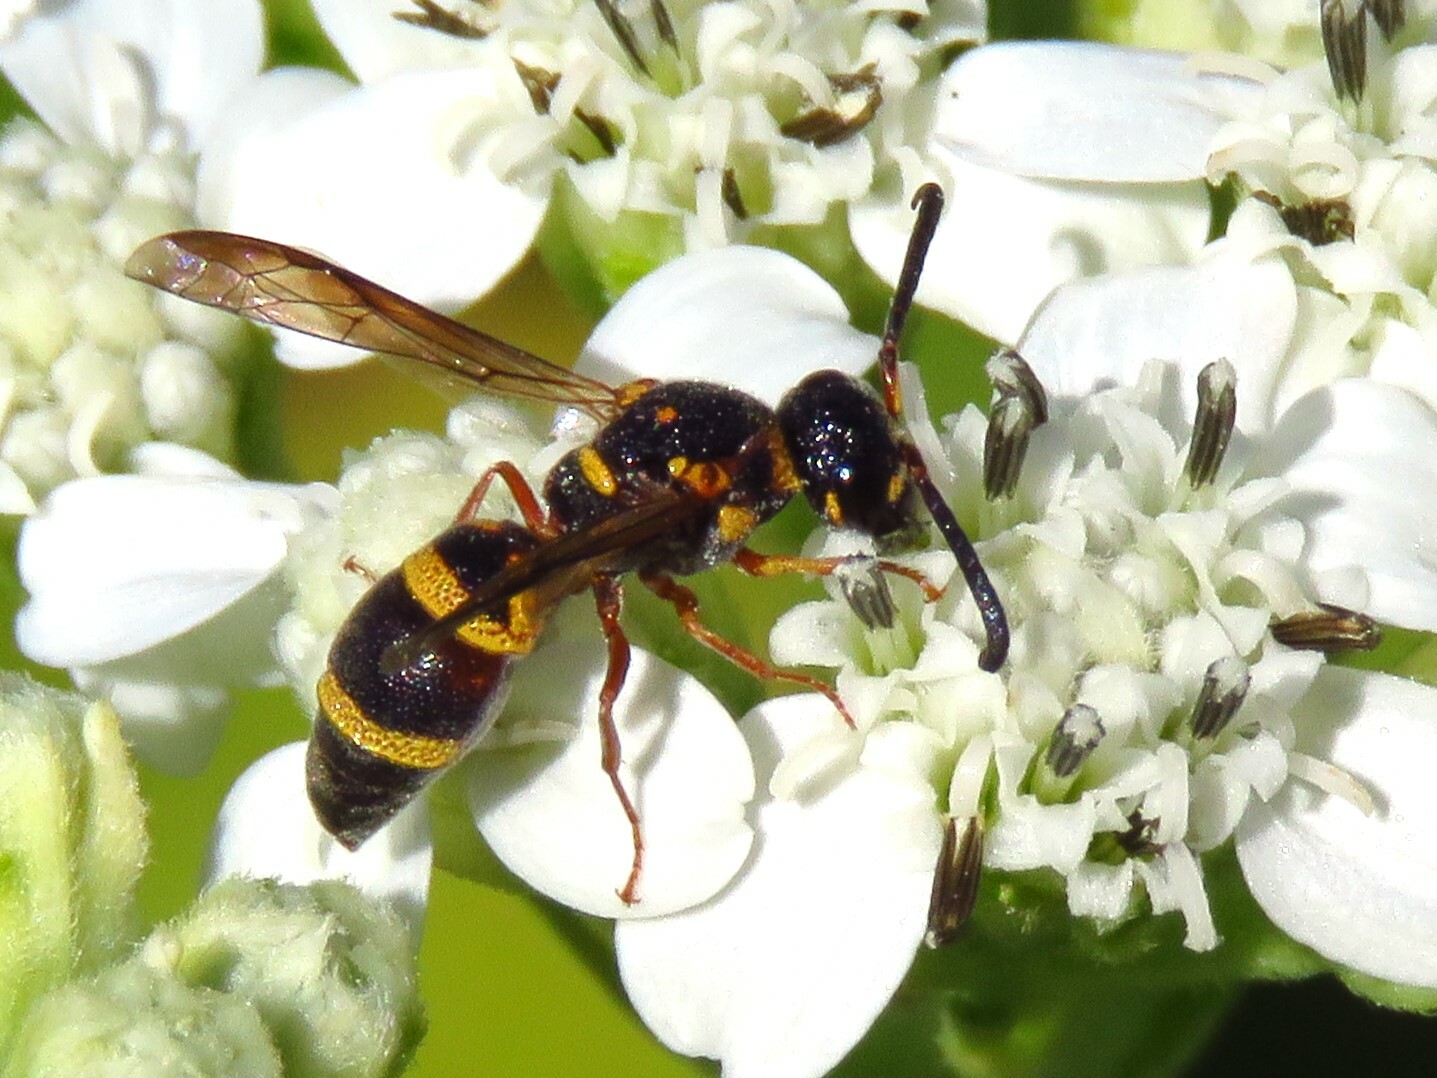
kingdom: Animalia
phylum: Arthropoda
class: Insecta
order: Hymenoptera
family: Eumenidae
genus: Parancistrocerus
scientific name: Parancistrocerus fulvipes
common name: Potter wasp
